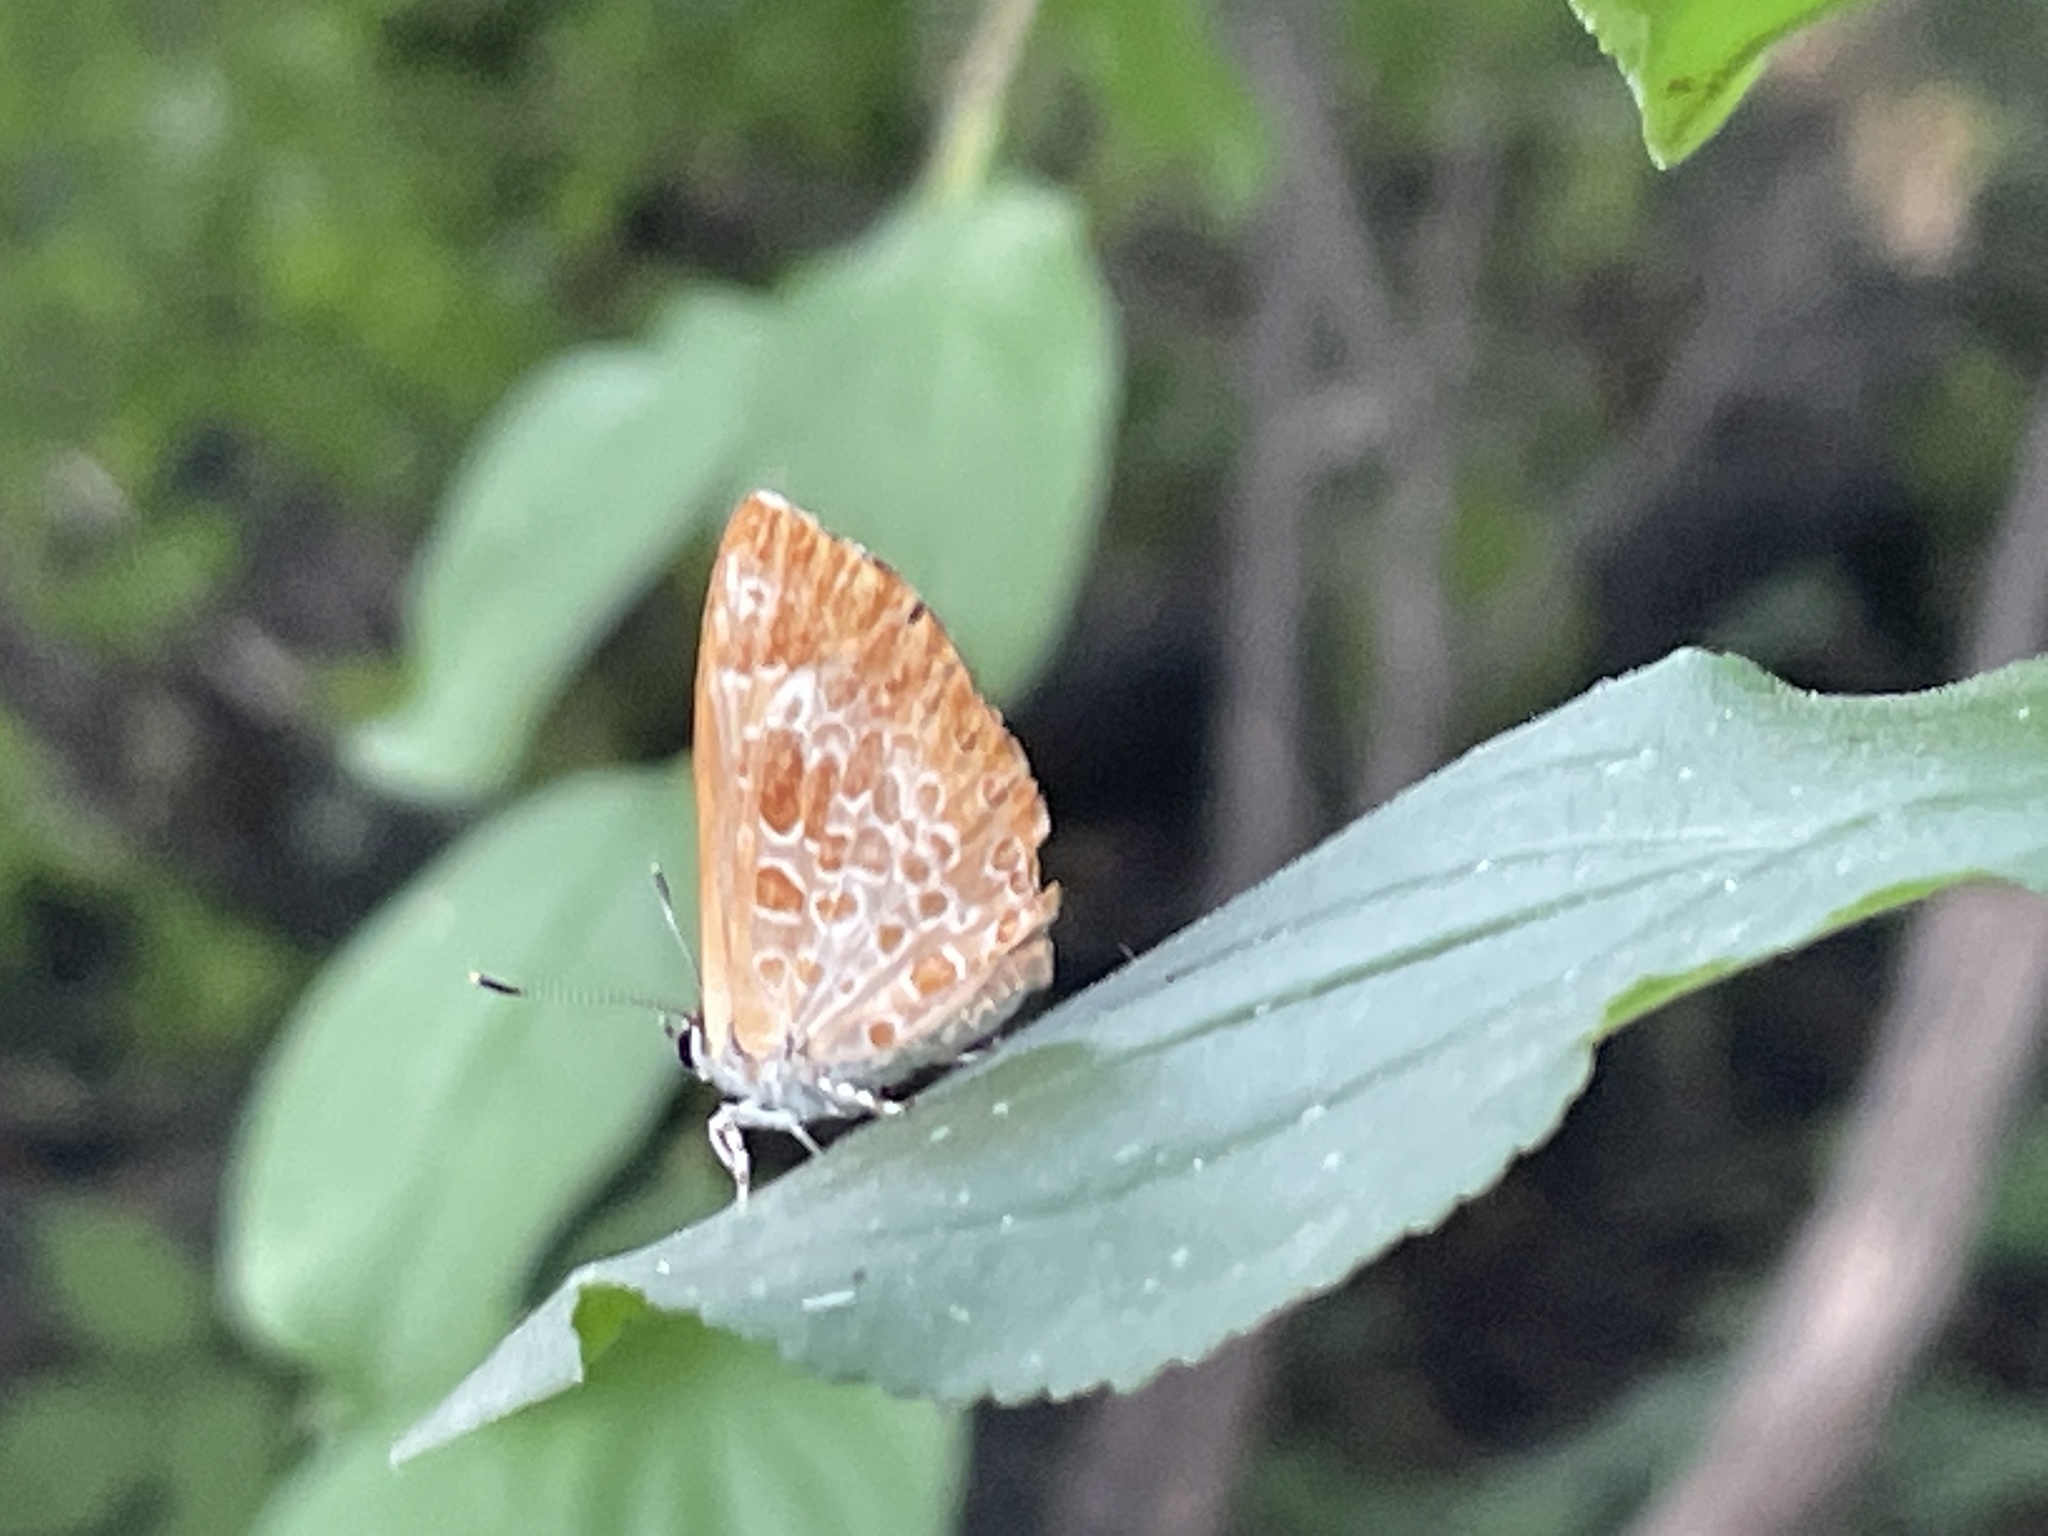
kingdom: Animalia
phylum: Arthropoda
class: Insecta
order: Lepidoptera
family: Lycaenidae
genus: Feniseca
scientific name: Feniseca tarquinius
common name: Harvester
